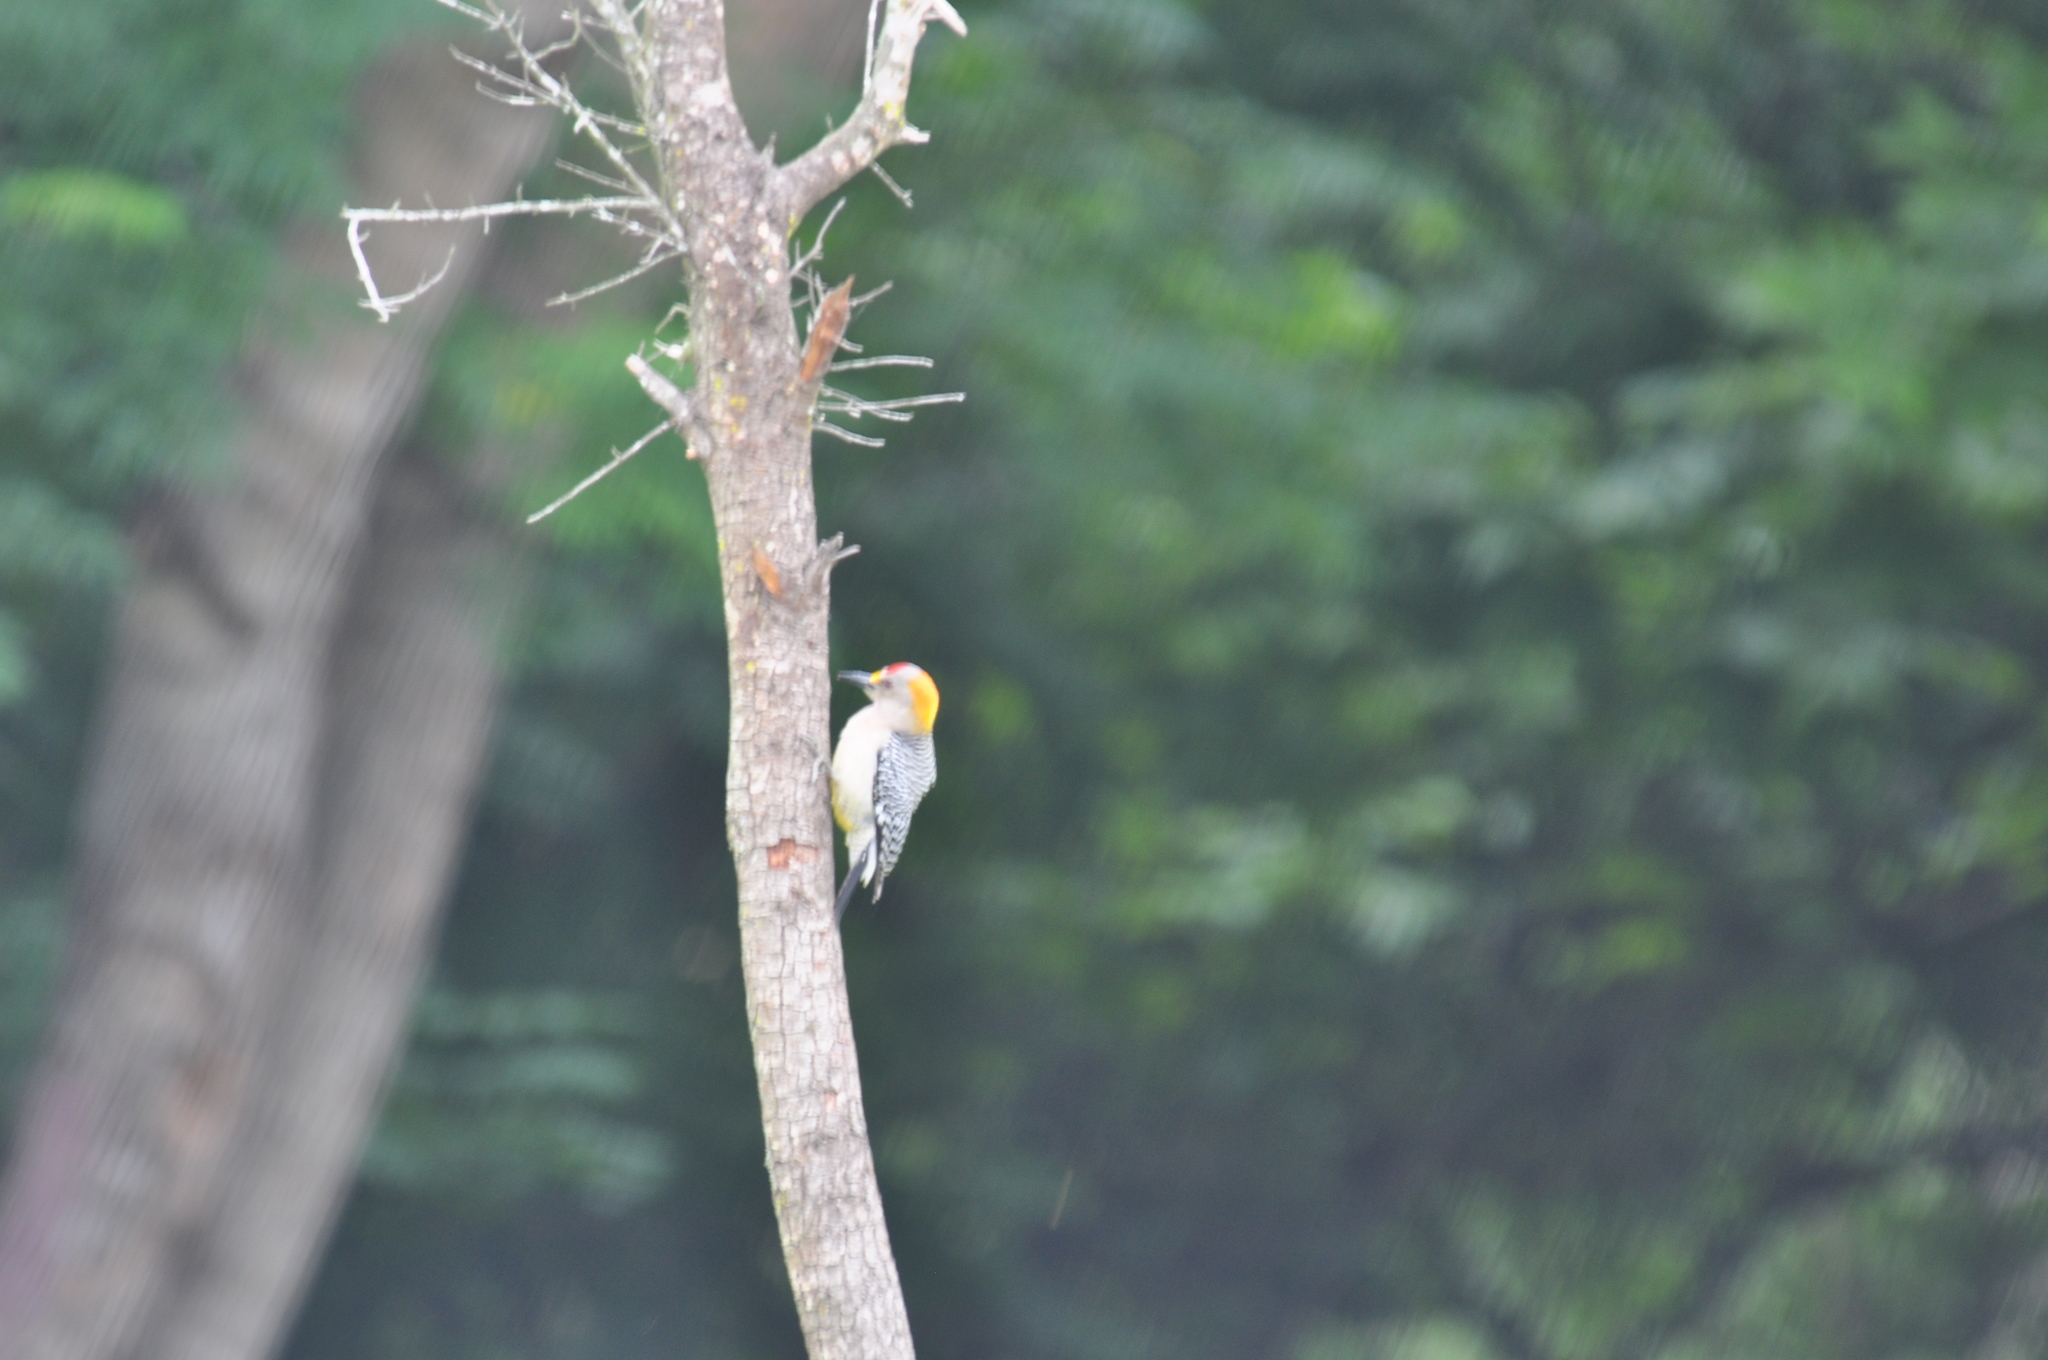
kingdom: Animalia
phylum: Chordata
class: Aves
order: Piciformes
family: Picidae
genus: Melanerpes
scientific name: Melanerpes aurifrons
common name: Golden-fronted woodpecker
